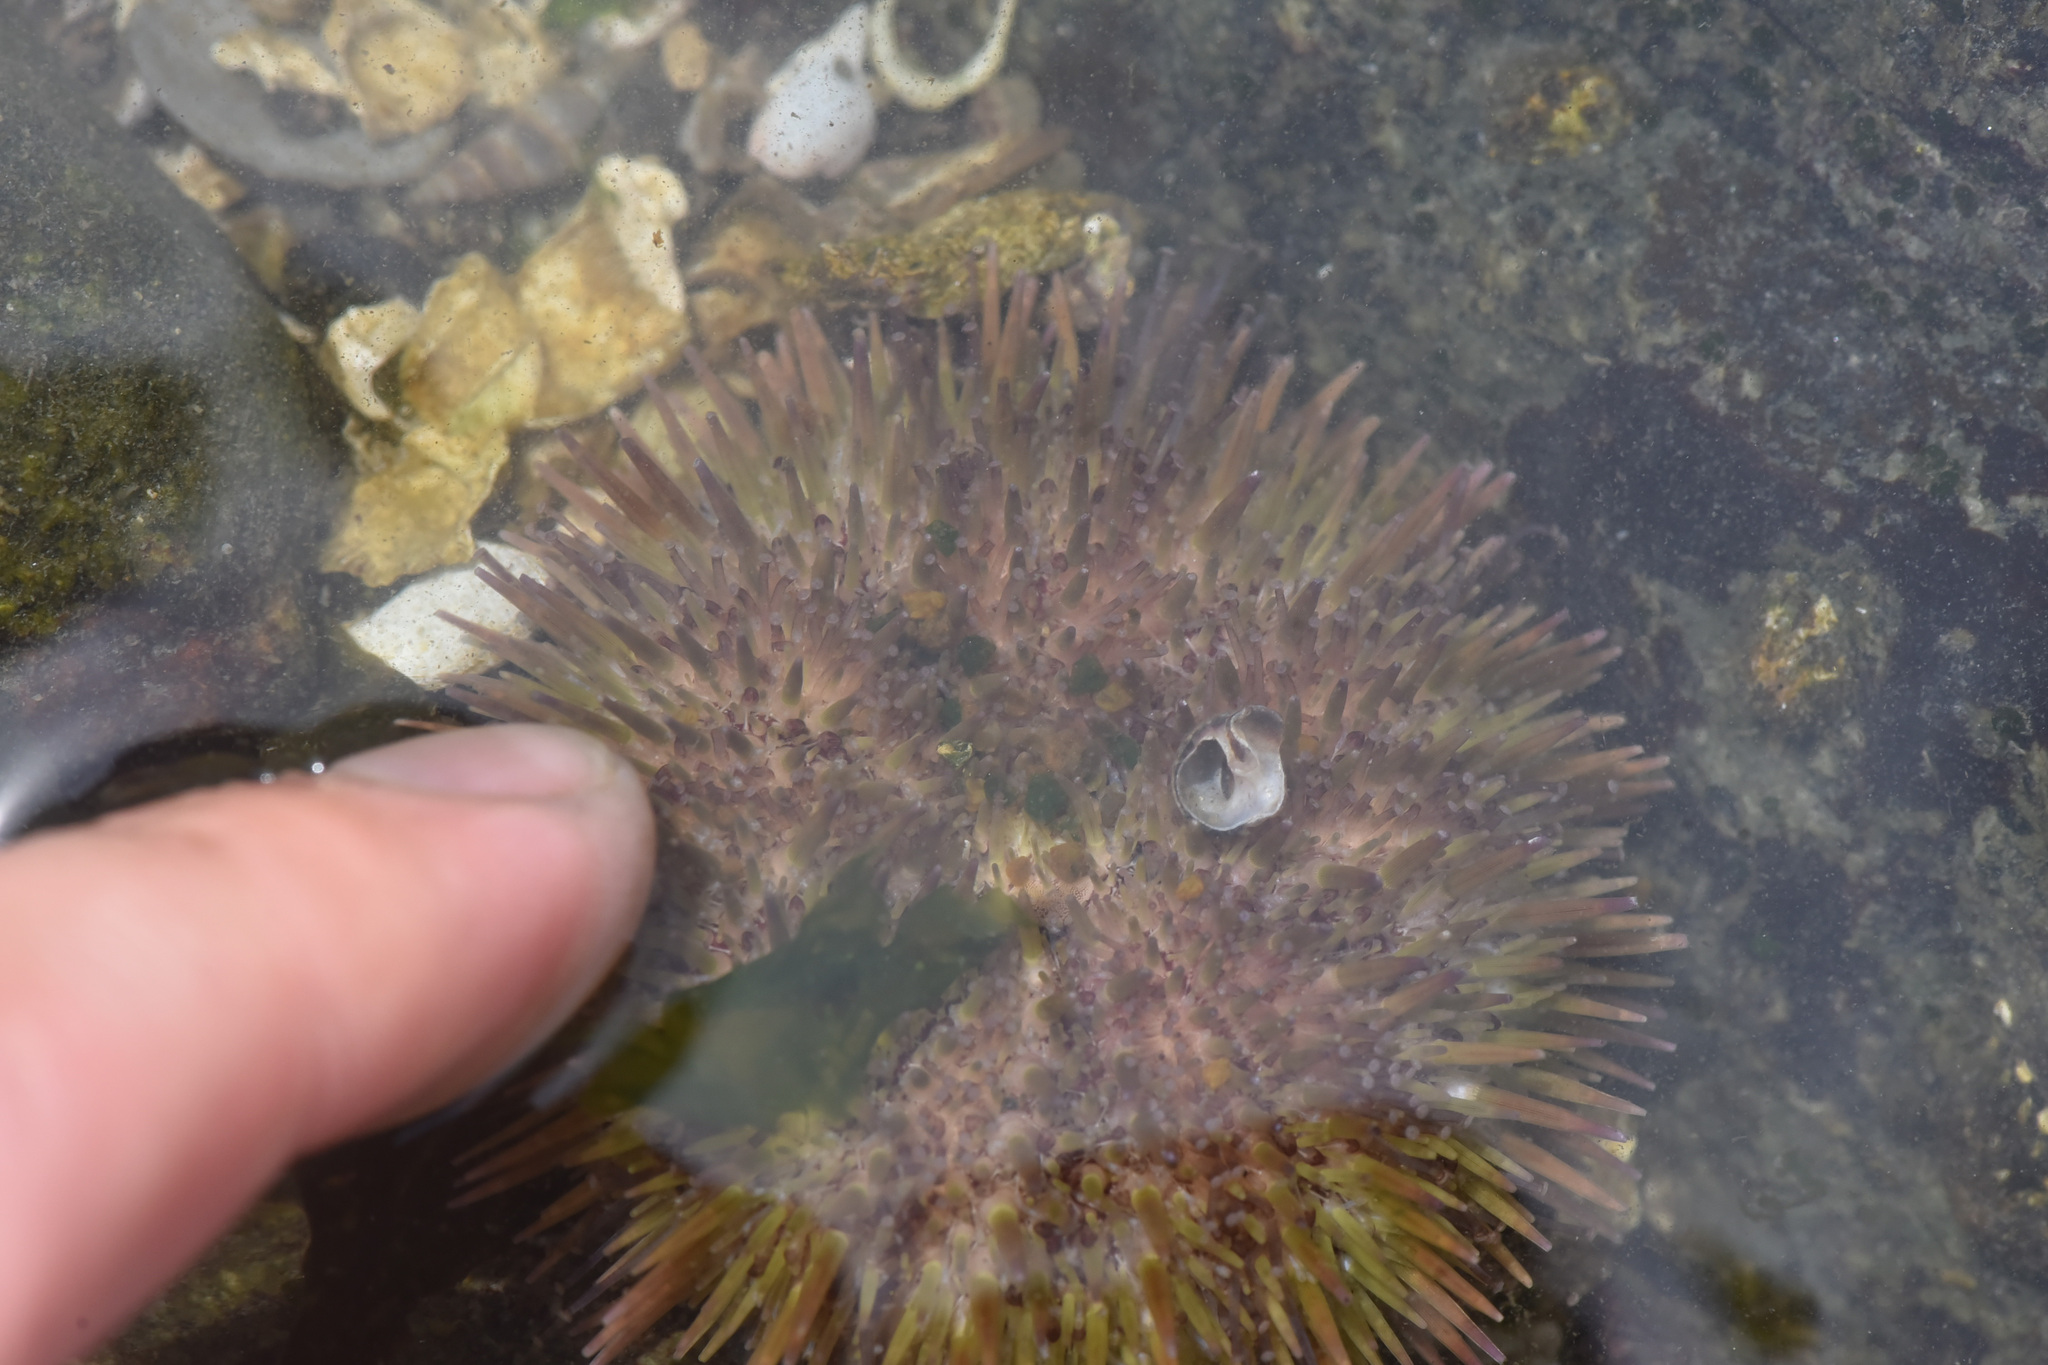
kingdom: Animalia
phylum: Echinodermata
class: Echinoidea
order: Camarodonta
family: Strongylocentrotidae
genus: Strongylocentrotus
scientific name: Strongylocentrotus droebachiensis
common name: Northern sea urchin
